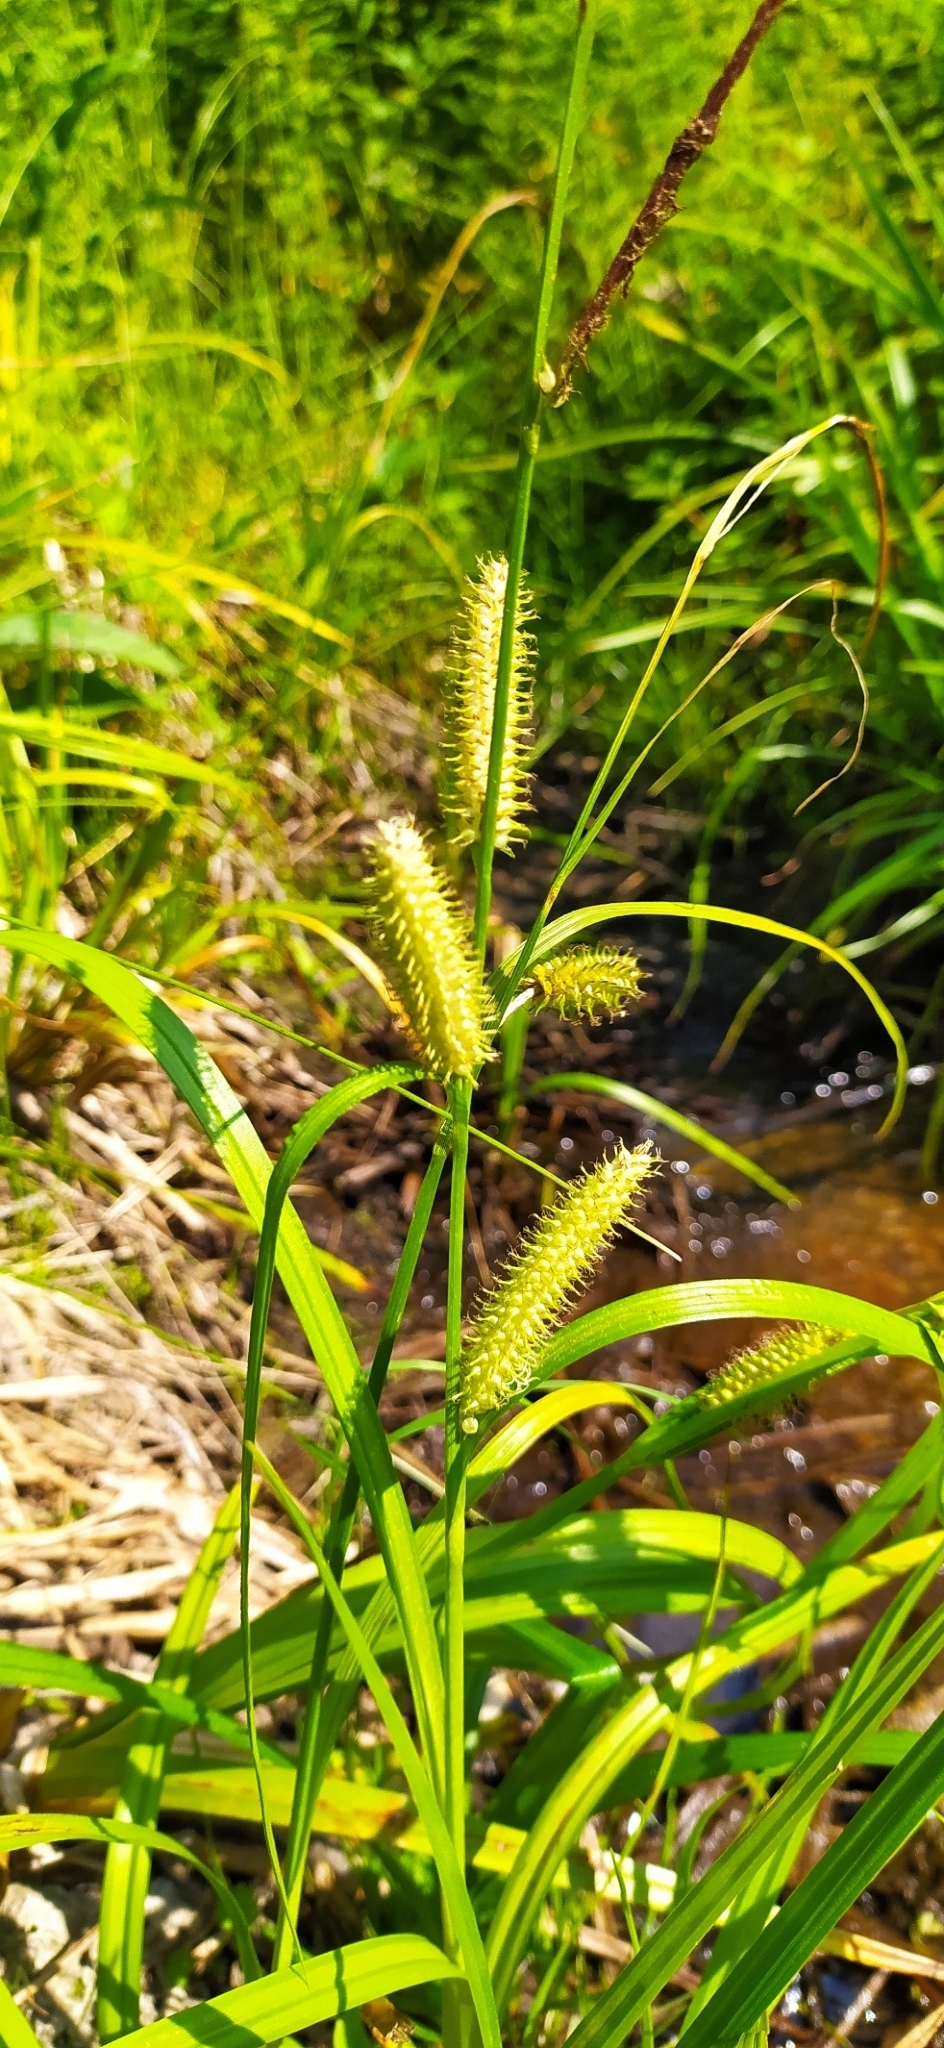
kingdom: Plantae
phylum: Tracheophyta
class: Liliopsida
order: Poales
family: Cyperaceae
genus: Carex
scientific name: Carex utriculata
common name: Beaked sedge
